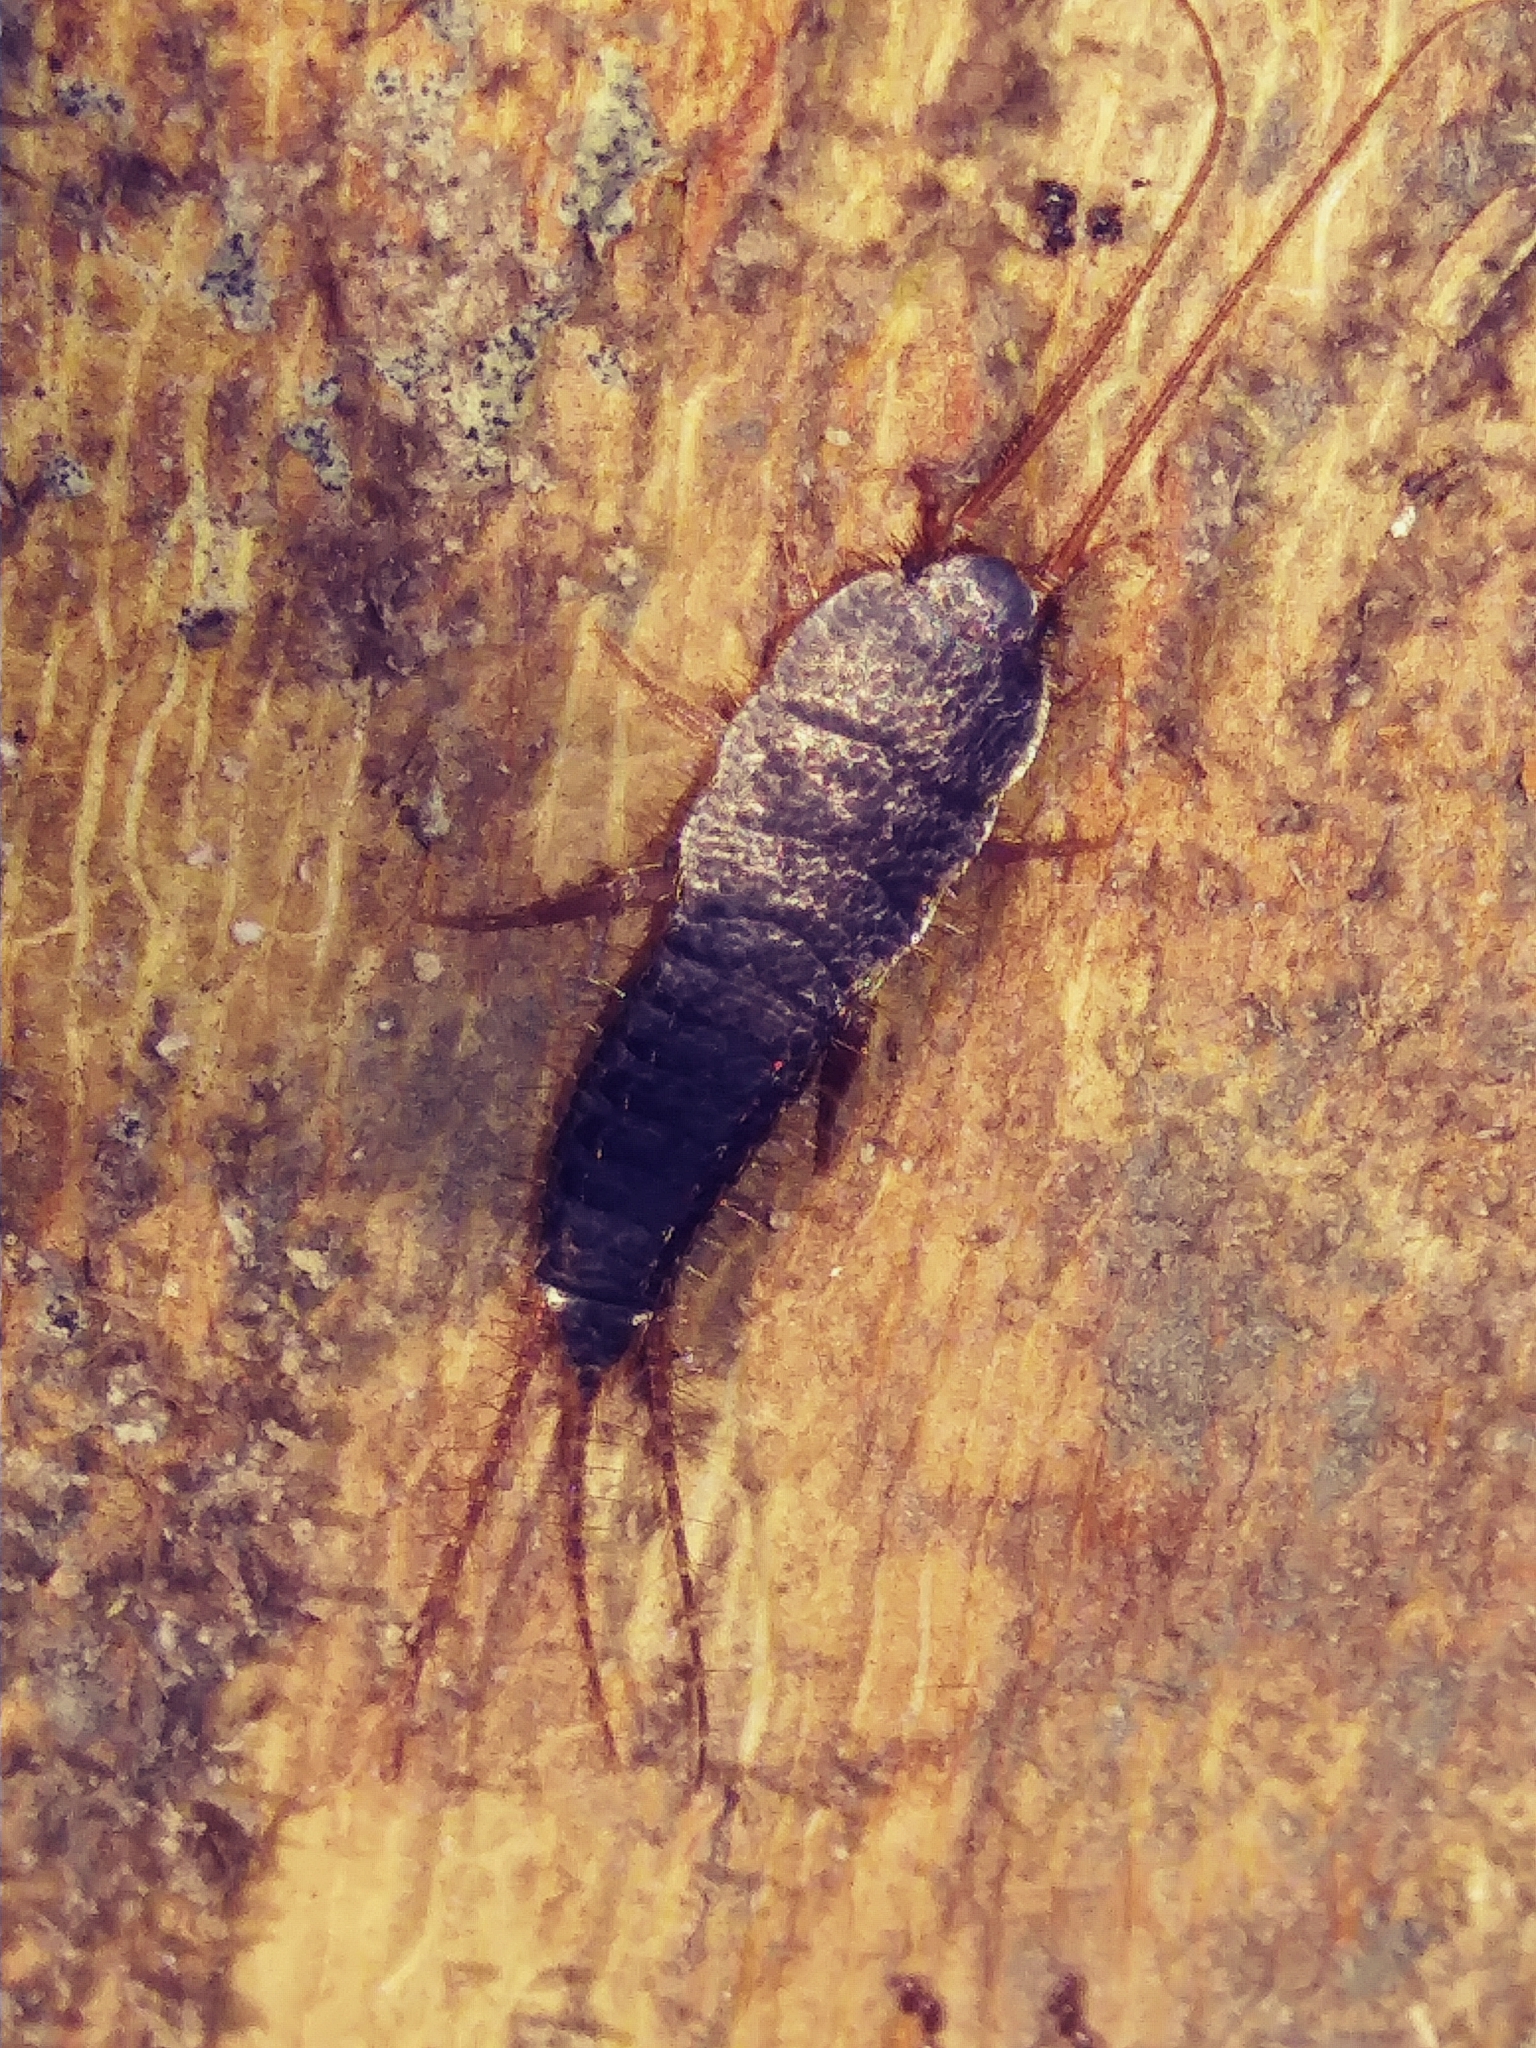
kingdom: Animalia
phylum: Arthropoda
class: Insecta
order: Zygentoma
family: Lepismatidae
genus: Allacrotelsa
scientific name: Allacrotelsa spinulata
